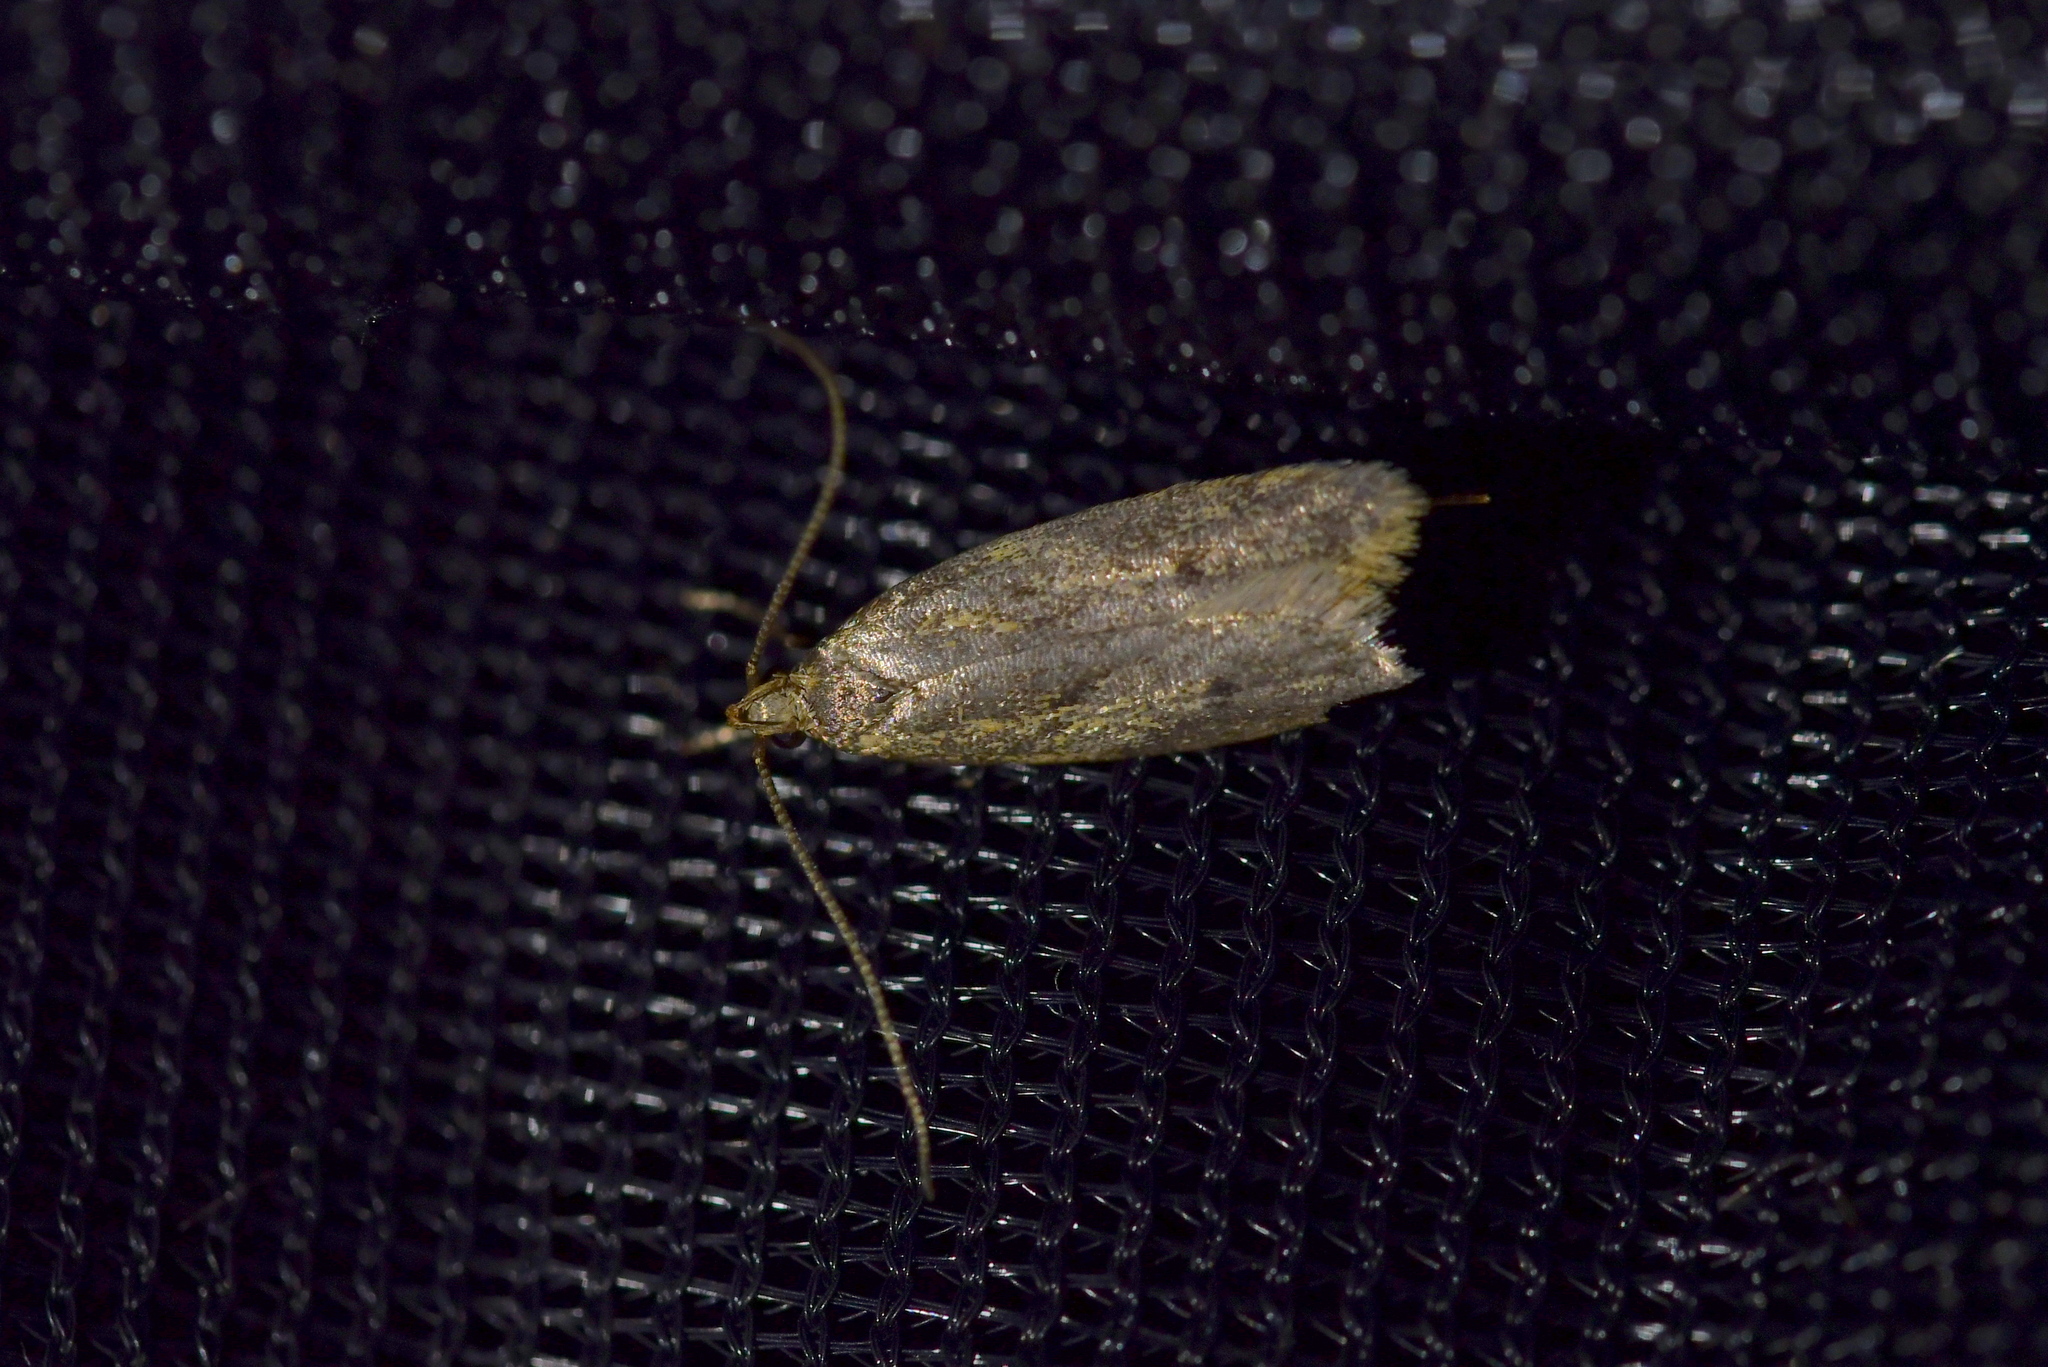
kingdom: Animalia
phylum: Arthropoda
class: Insecta
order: Lepidoptera
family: Oecophoridae
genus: Gymnobathra
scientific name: Gymnobathra tholodella
